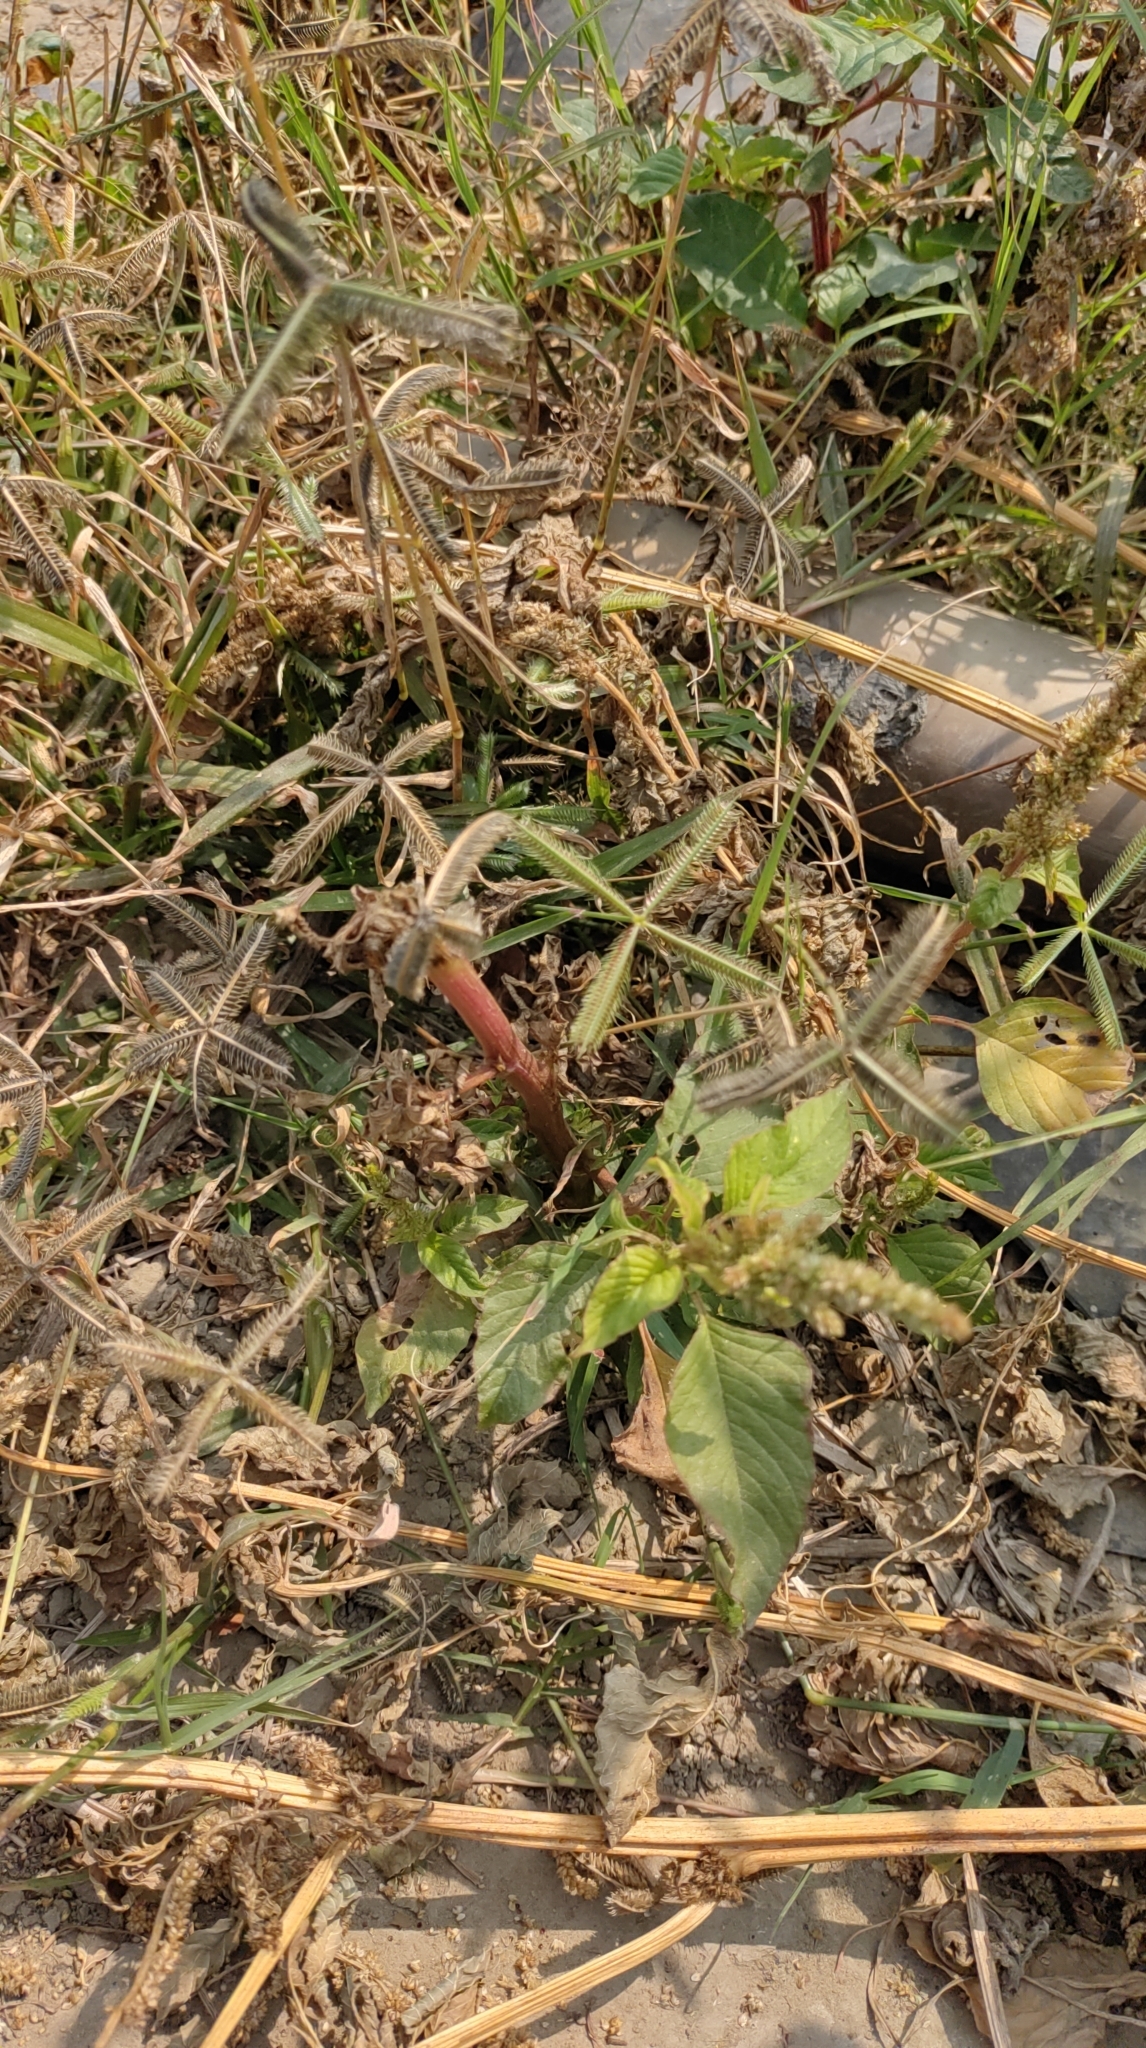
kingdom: Plantae
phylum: Tracheophyta
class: Liliopsida
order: Poales
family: Poaceae
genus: Dactyloctenium
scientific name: Dactyloctenium aegyptium
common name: Egyptian grass
